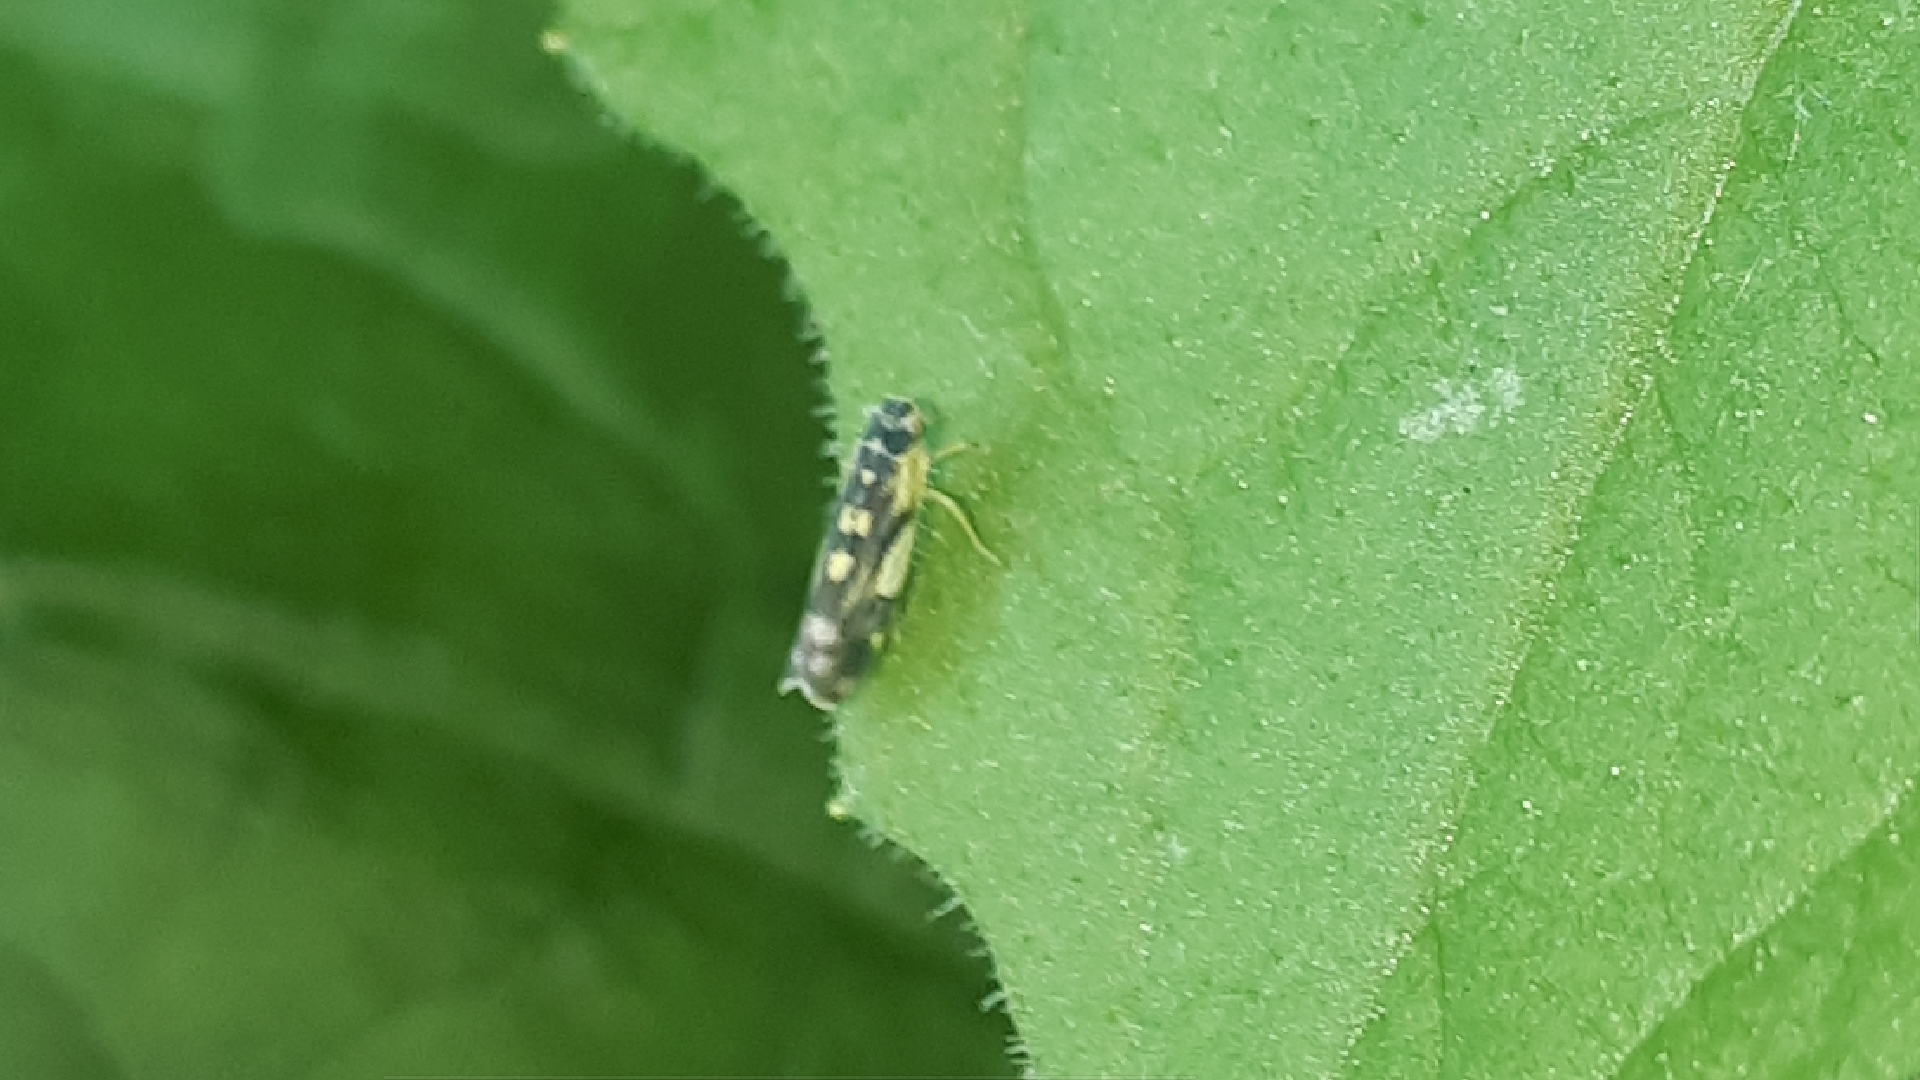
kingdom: Animalia
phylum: Arthropoda
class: Insecta
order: Hemiptera
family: Cicadellidae
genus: Eupteryx
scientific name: Eupteryx aurata
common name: Leafhopper
